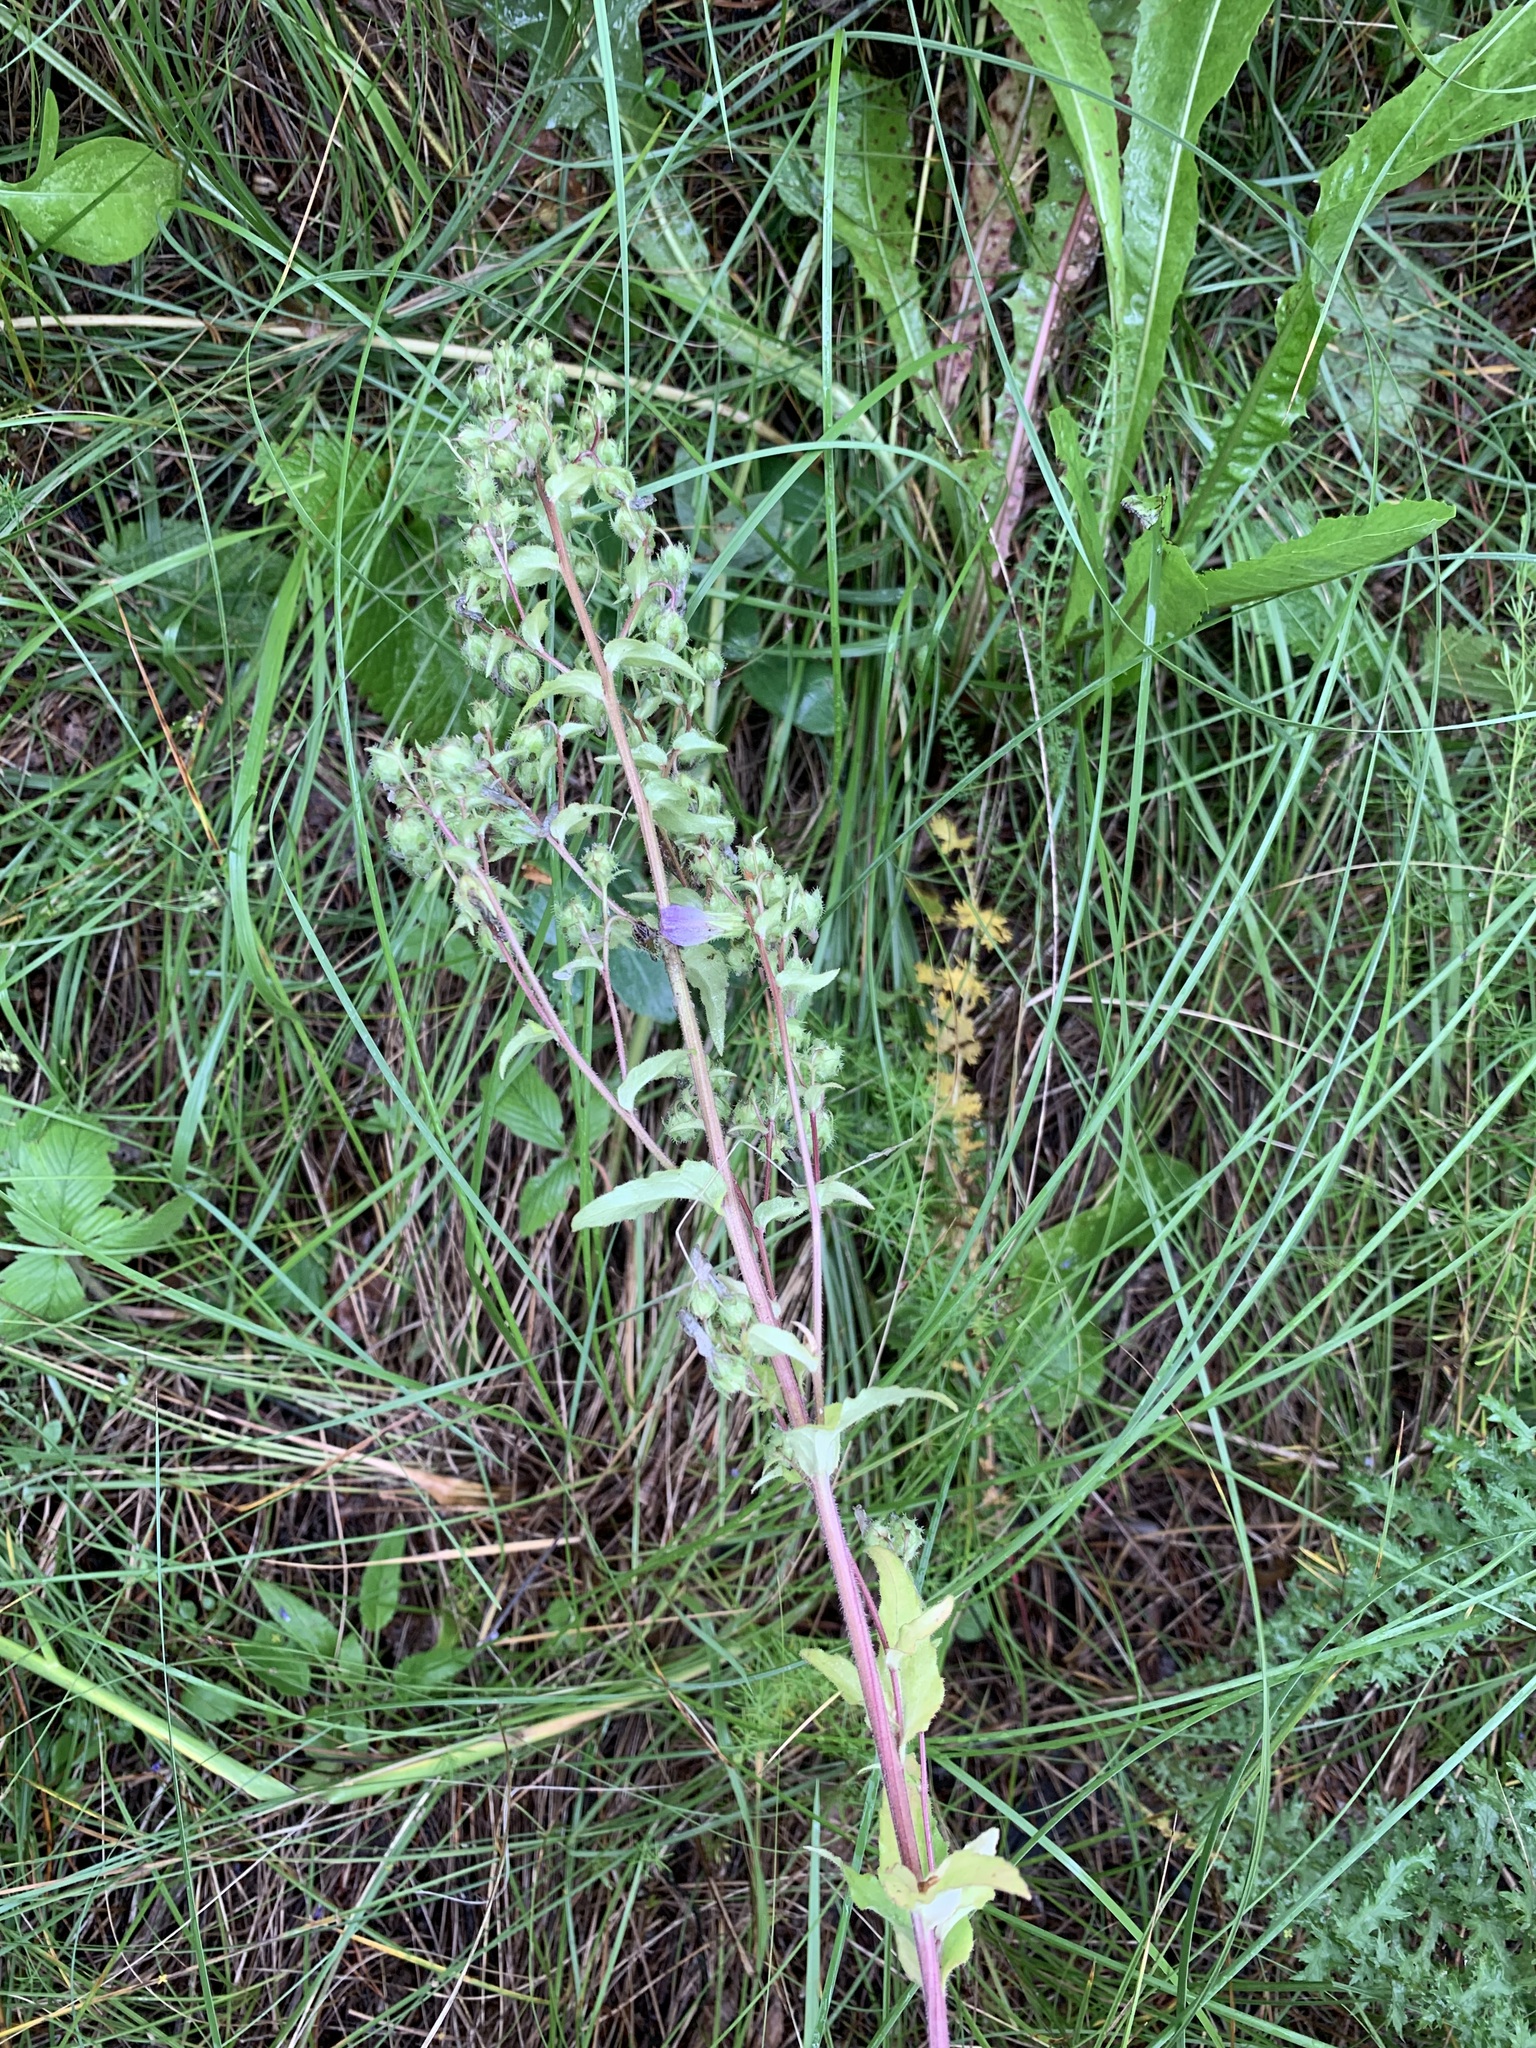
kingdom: Plantae
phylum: Tracheophyta
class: Magnoliopsida
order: Asterales
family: Campanulaceae
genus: Campanula
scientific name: Campanula sibirica
